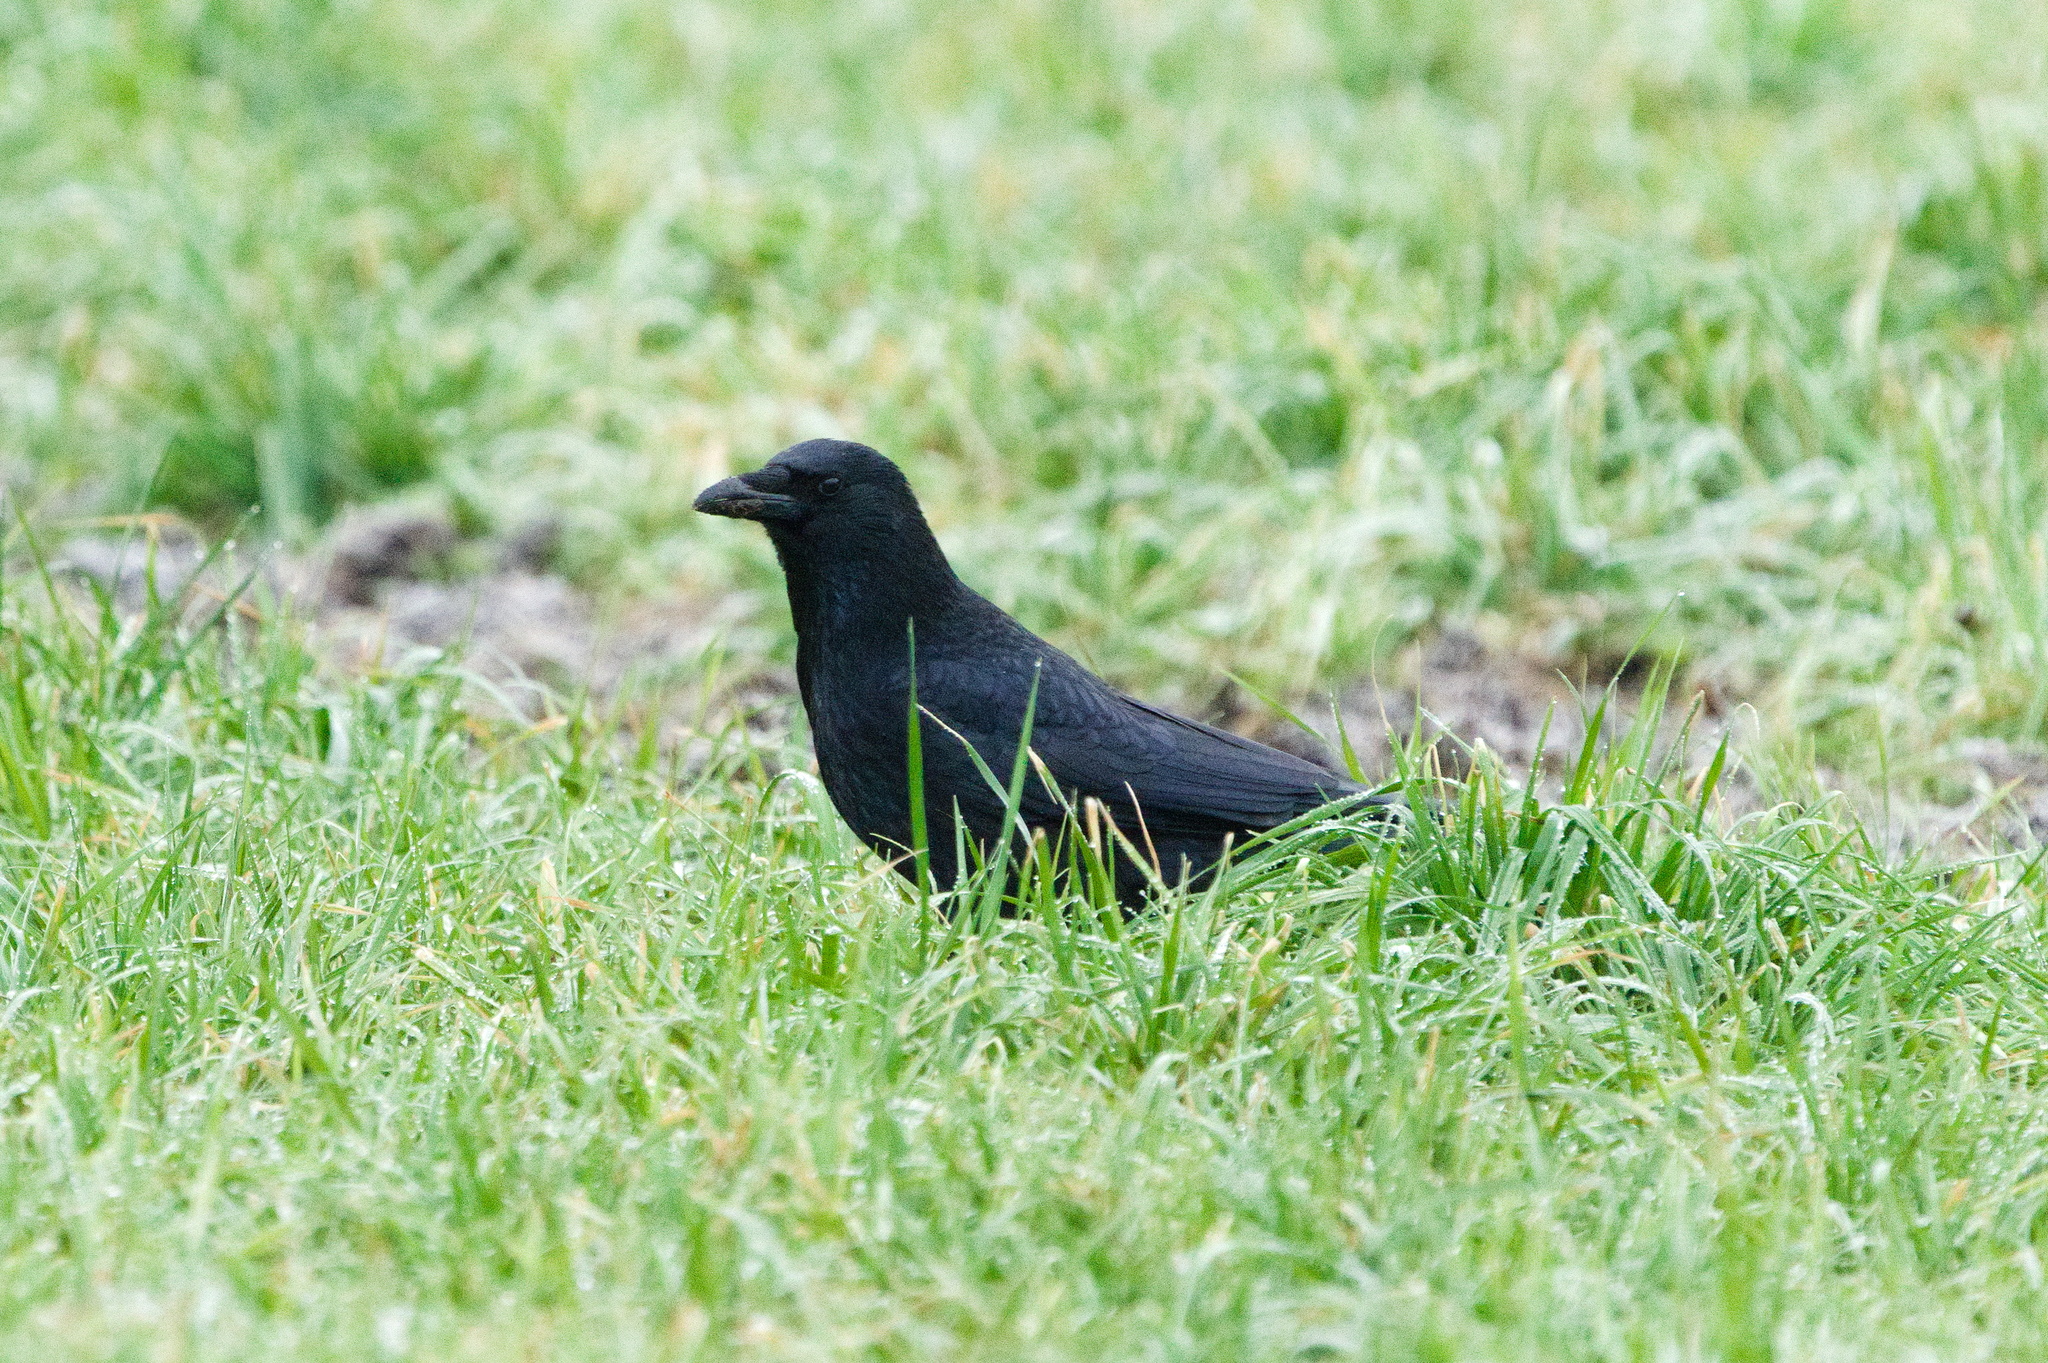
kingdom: Animalia
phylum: Chordata
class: Aves
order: Passeriformes
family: Corvidae
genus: Corvus
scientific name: Corvus corone
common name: Carrion crow
